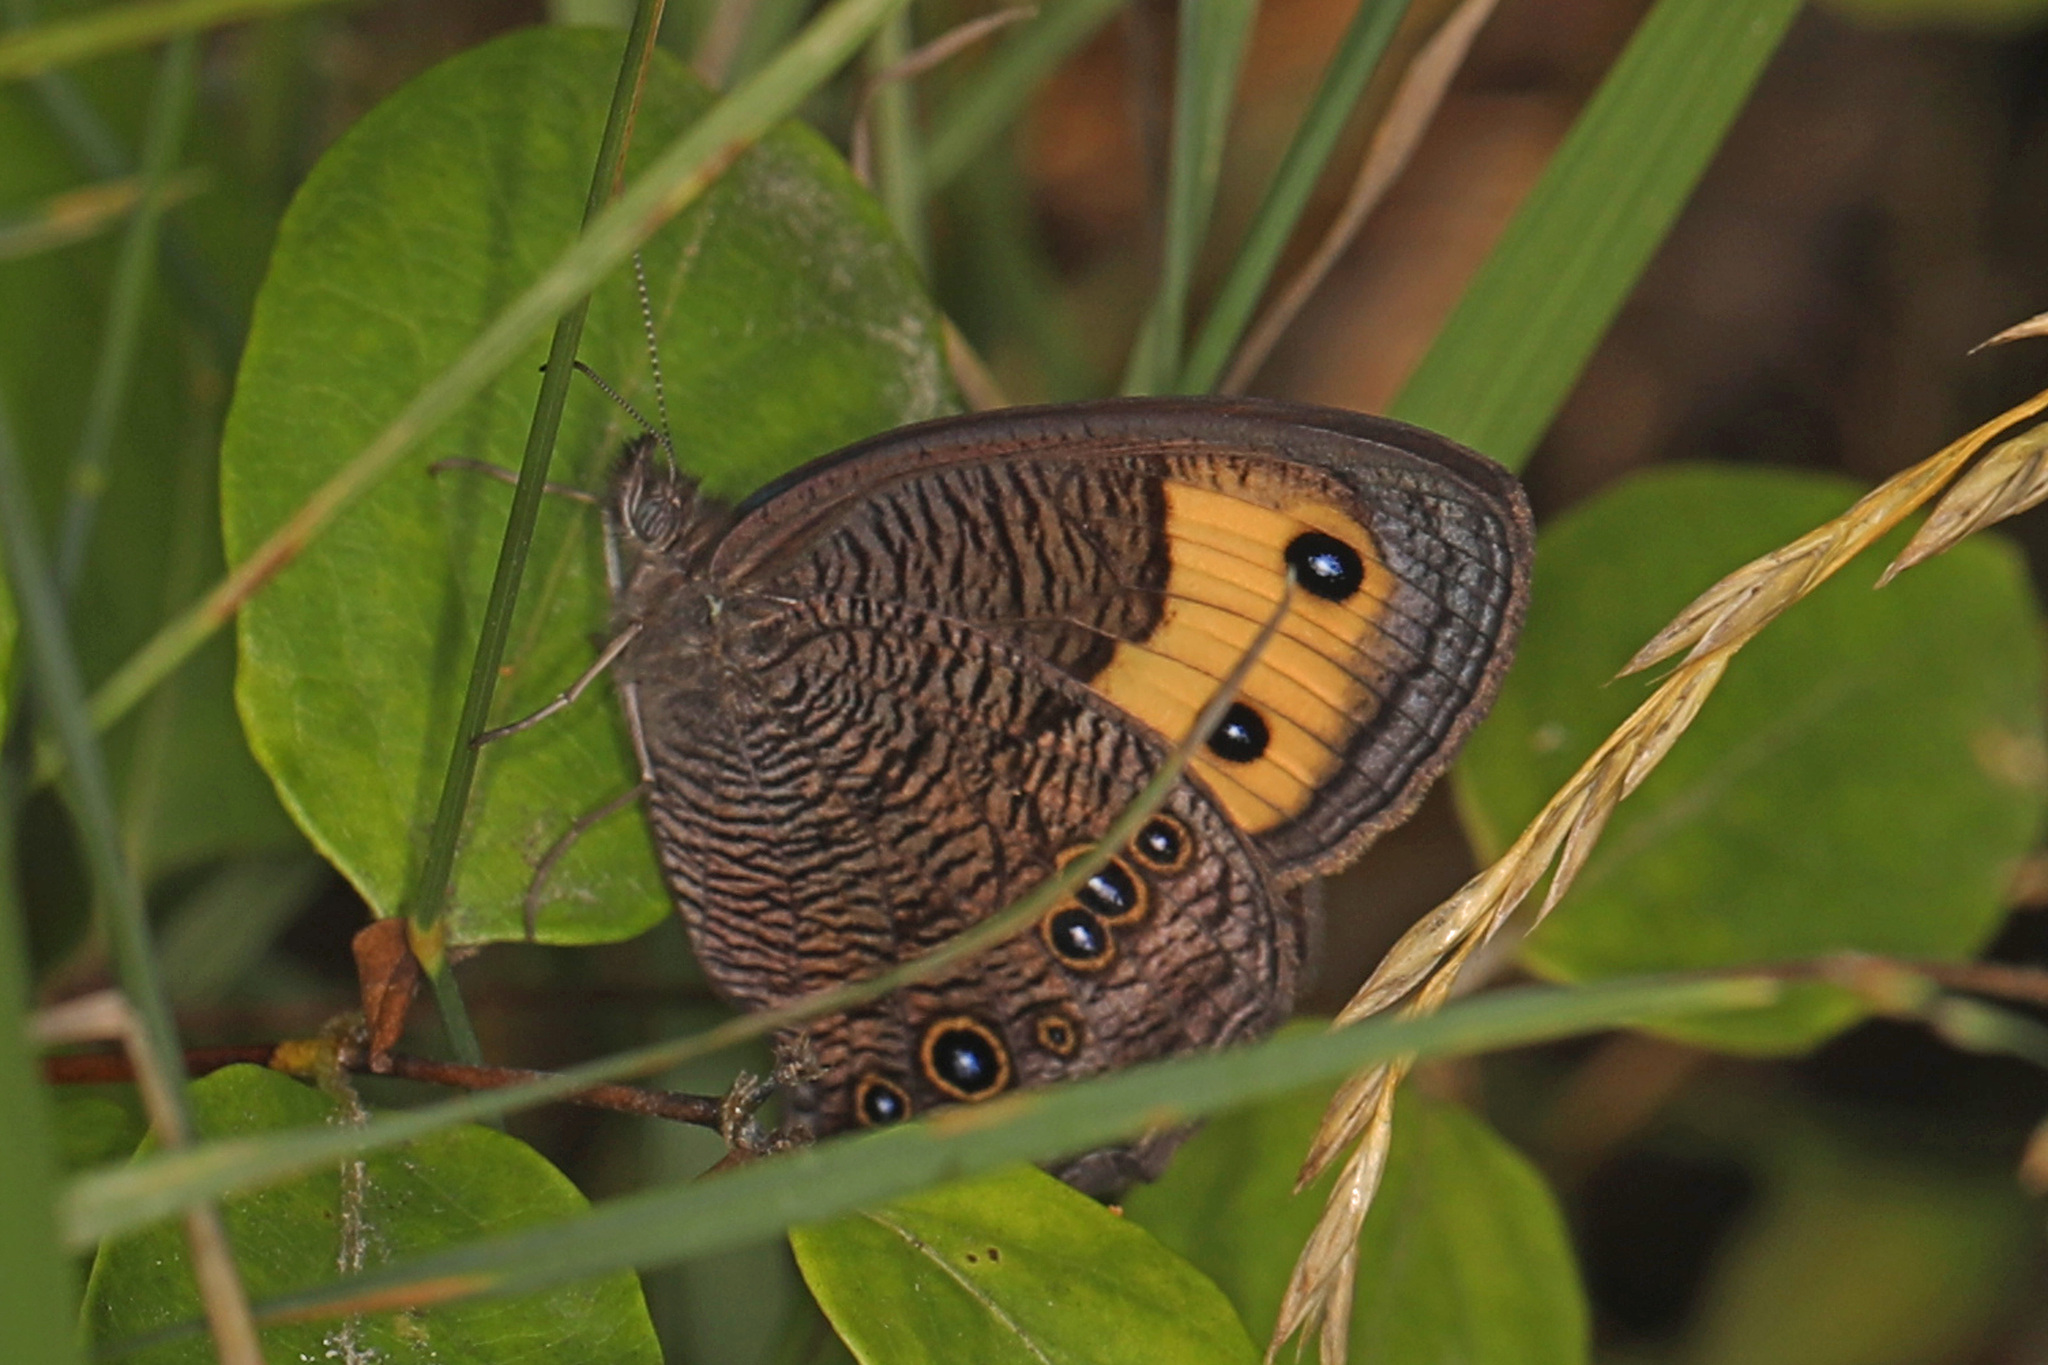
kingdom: Animalia
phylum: Arthropoda
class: Insecta
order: Lepidoptera
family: Nymphalidae
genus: Cercyonis
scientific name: Cercyonis pegala
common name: Common wood-nymph
